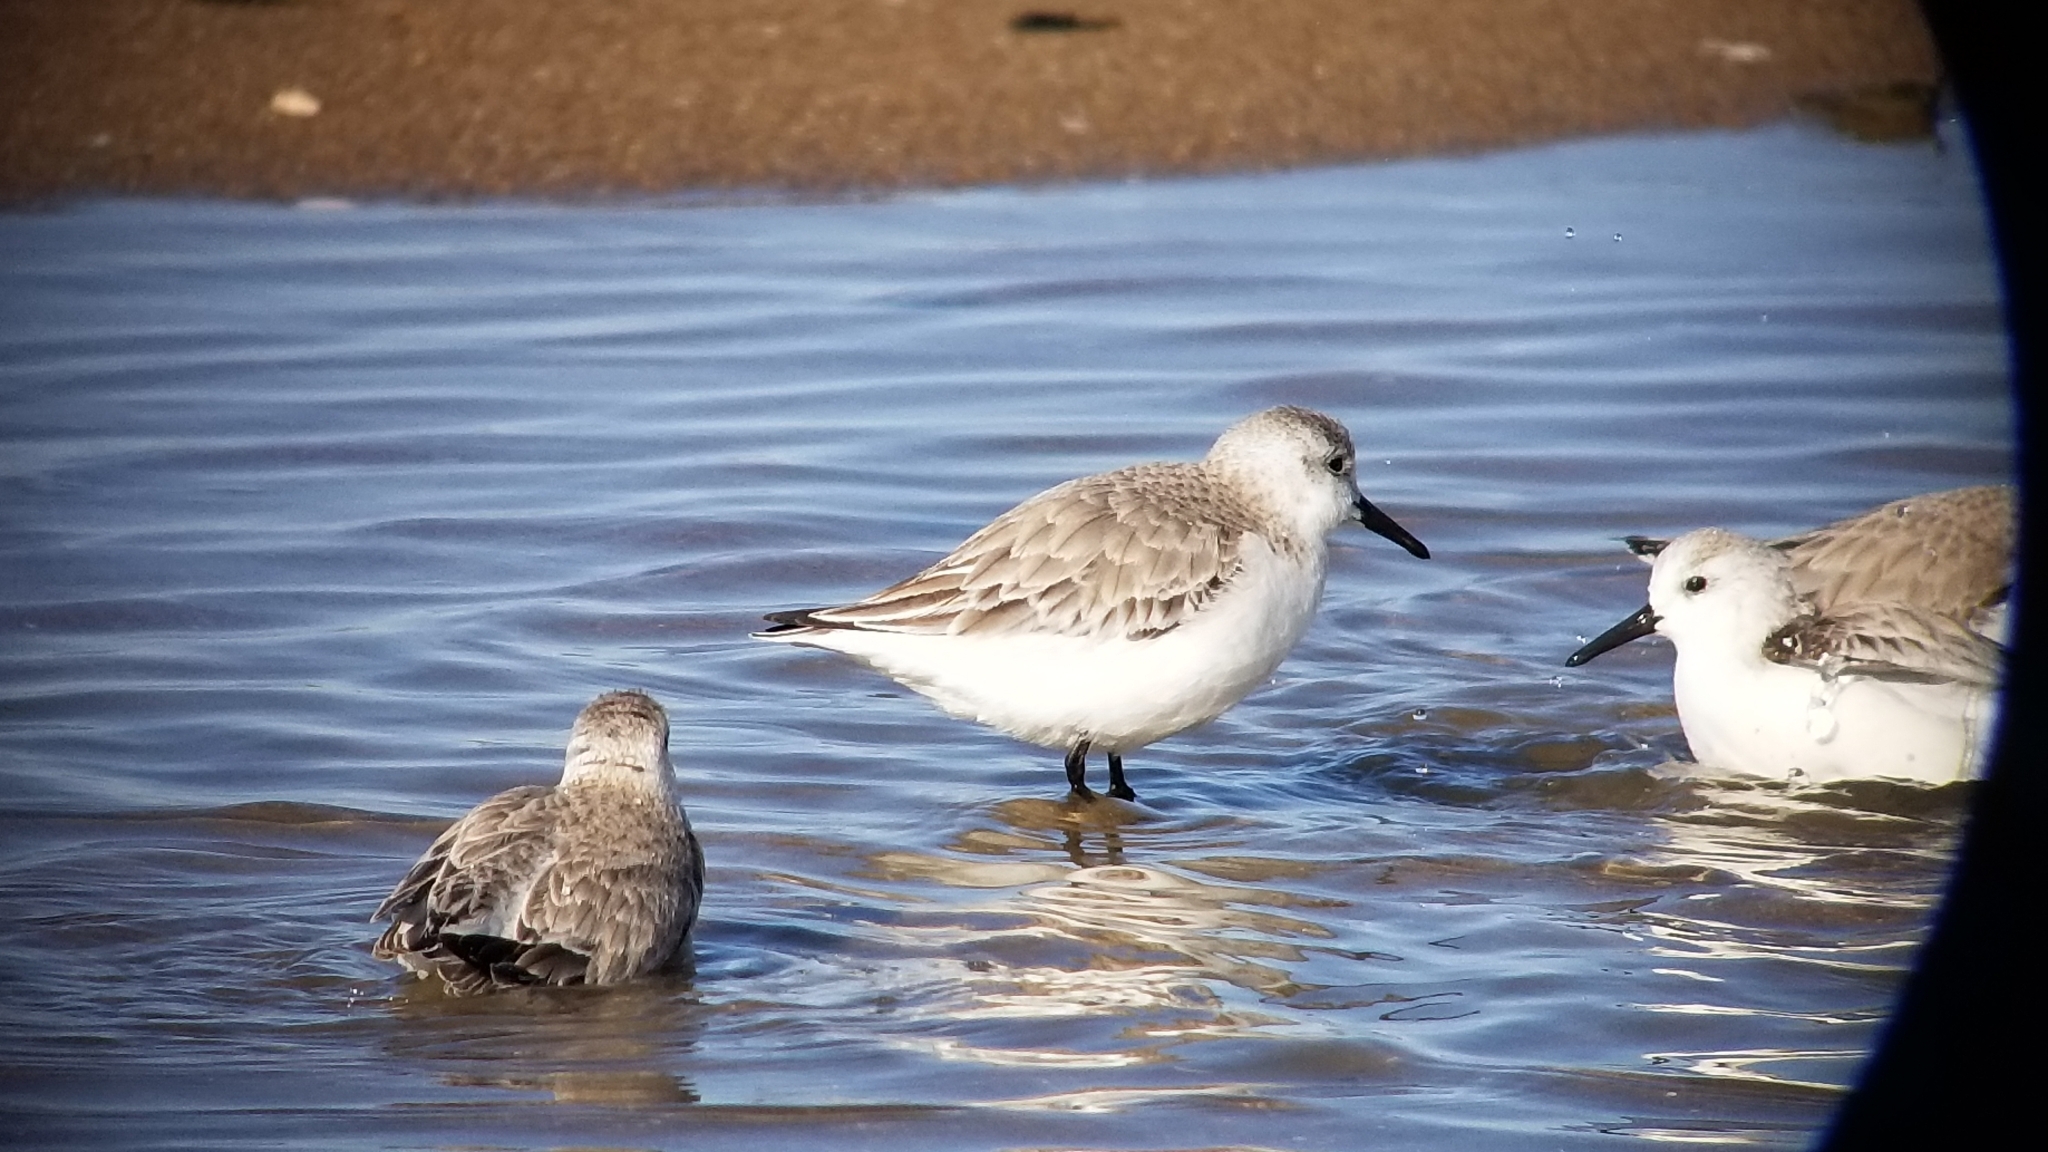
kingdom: Animalia
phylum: Chordata
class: Aves
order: Charadriiformes
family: Scolopacidae
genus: Calidris
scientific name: Calidris alba
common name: Sanderling
